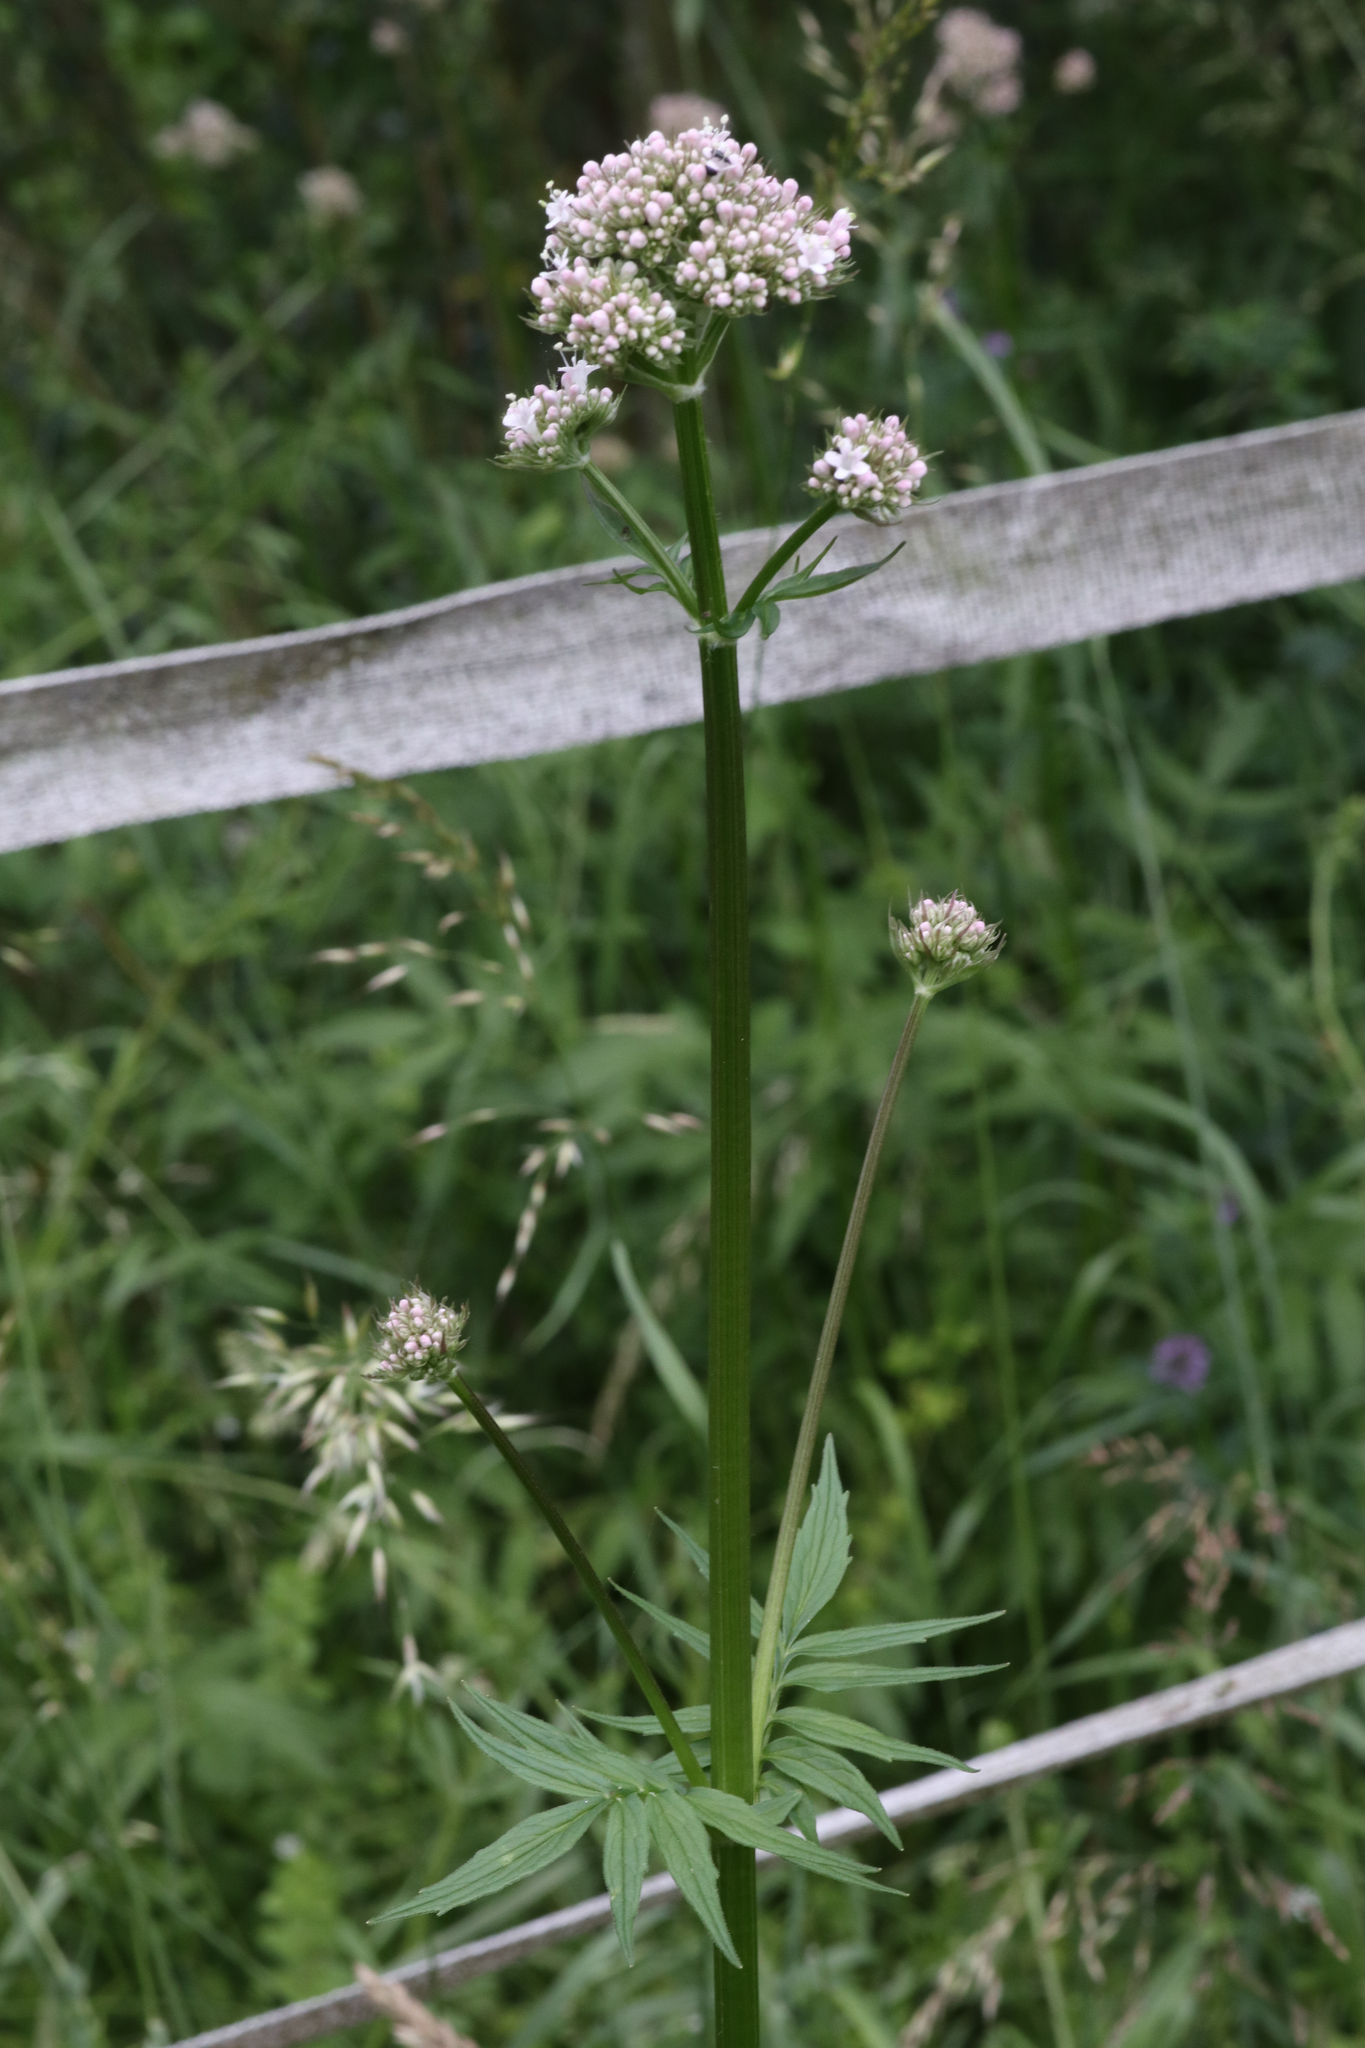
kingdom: Plantae
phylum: Tracheophyta
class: Magnoliopsida
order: Dipsacales
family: Caprifoliaceae
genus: Valeriana
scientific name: Valeriana officinalis
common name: Common valerian
